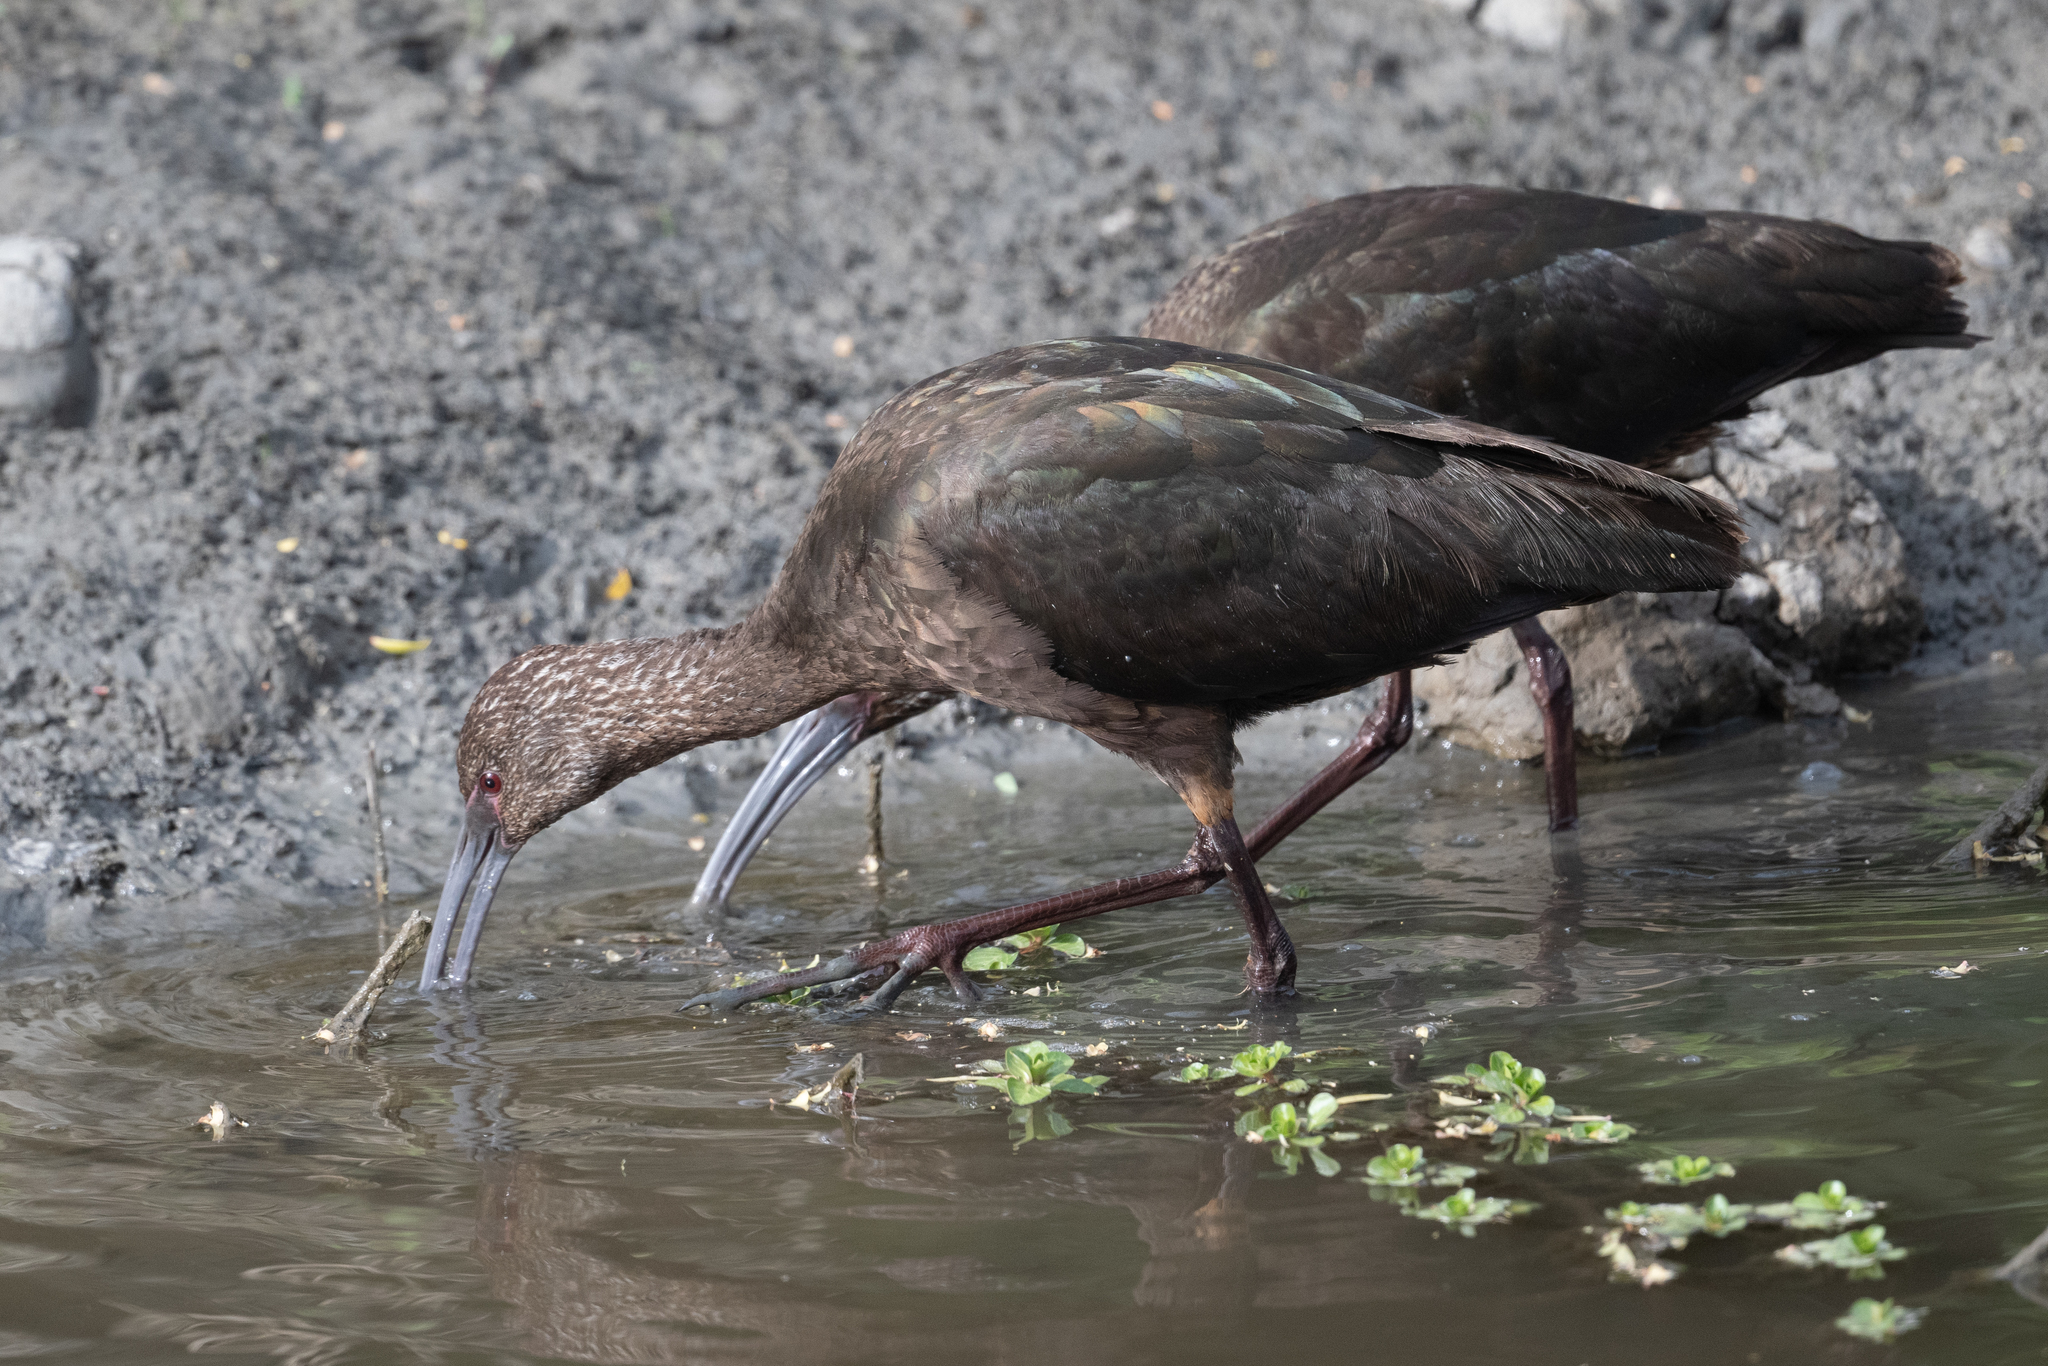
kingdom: Animalia
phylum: Chordata
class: Aves
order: Pelecaniformes
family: Threskiornithidae
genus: Plegadis
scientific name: Plegadis chihi
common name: White-faced ibis
